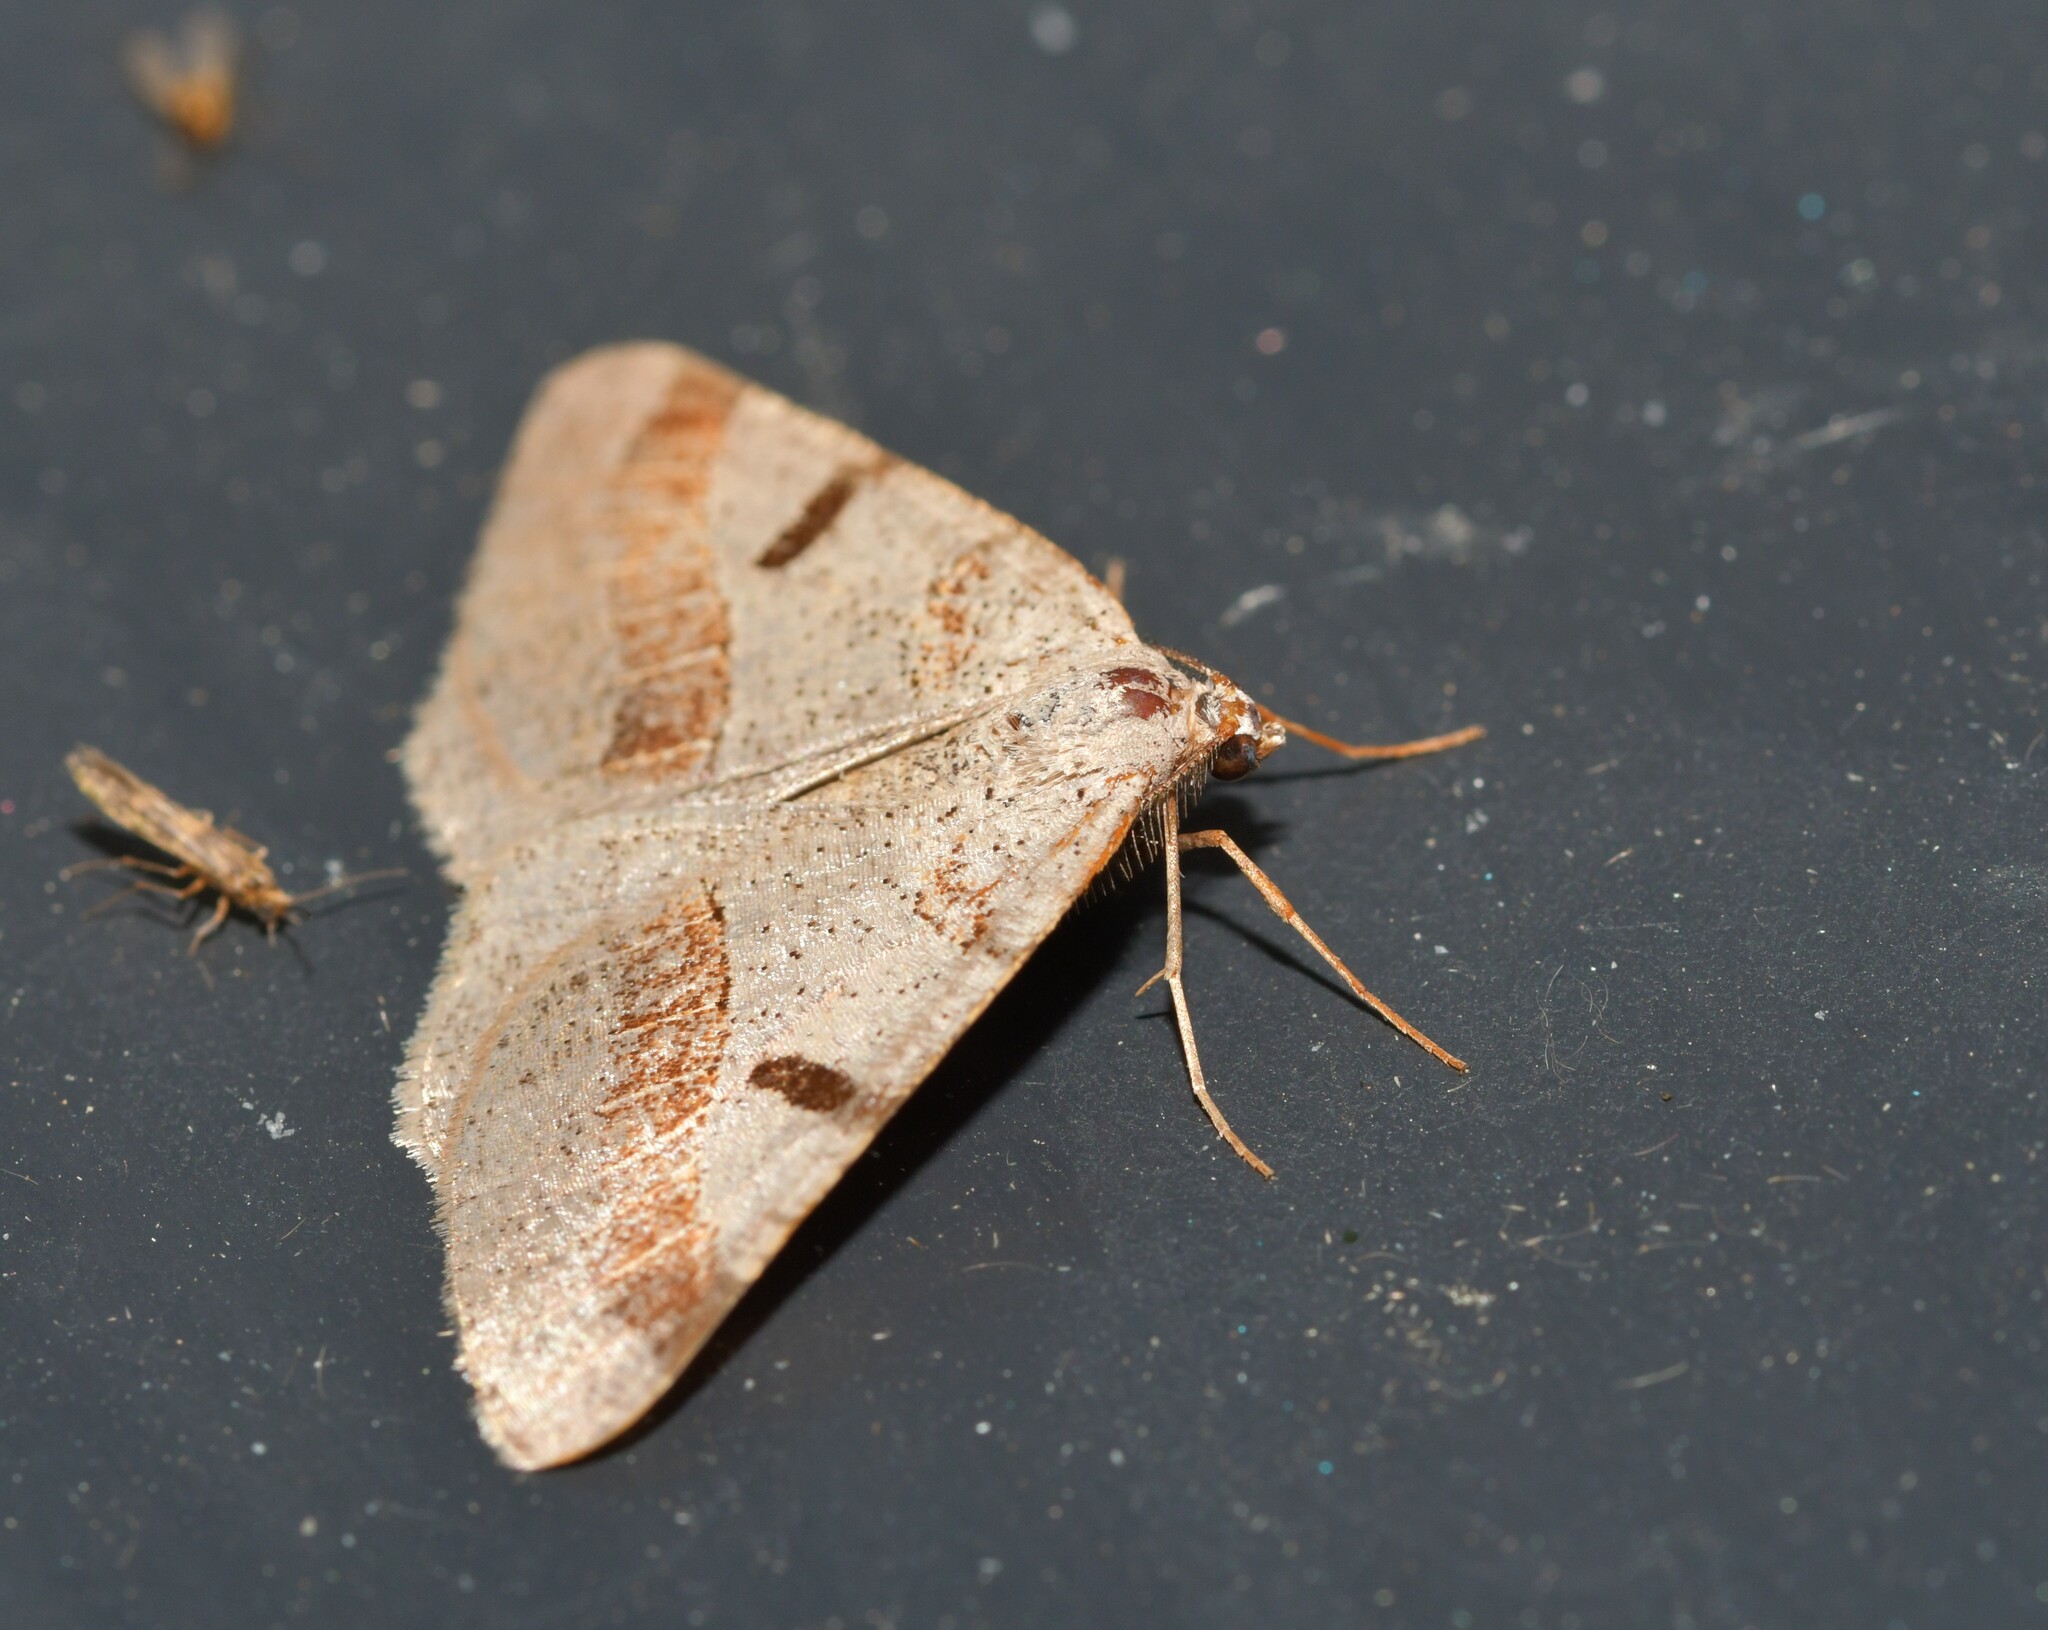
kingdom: Animalia
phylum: Arthropoda
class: Insecta
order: Lepidoptera
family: Geometridae
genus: Itame
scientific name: Itame vincularia
